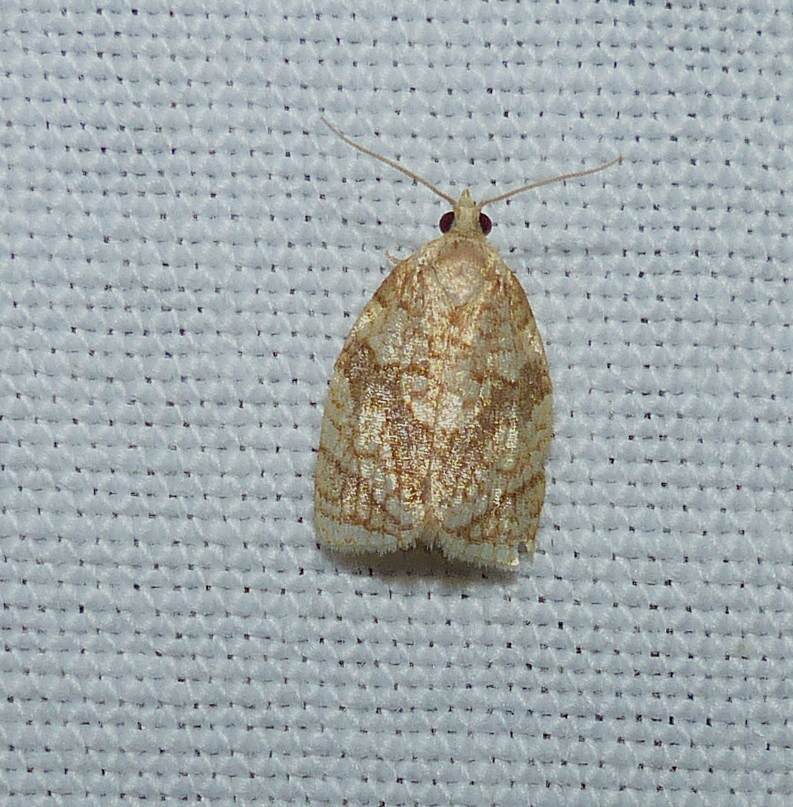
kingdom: Animalia
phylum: Arthropoda
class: Insecta
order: Lepidoptera
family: Tortricidae
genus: Adoxophyes
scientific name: Adoxophyes negundana
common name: Shimmering gold adoxophyes moth
